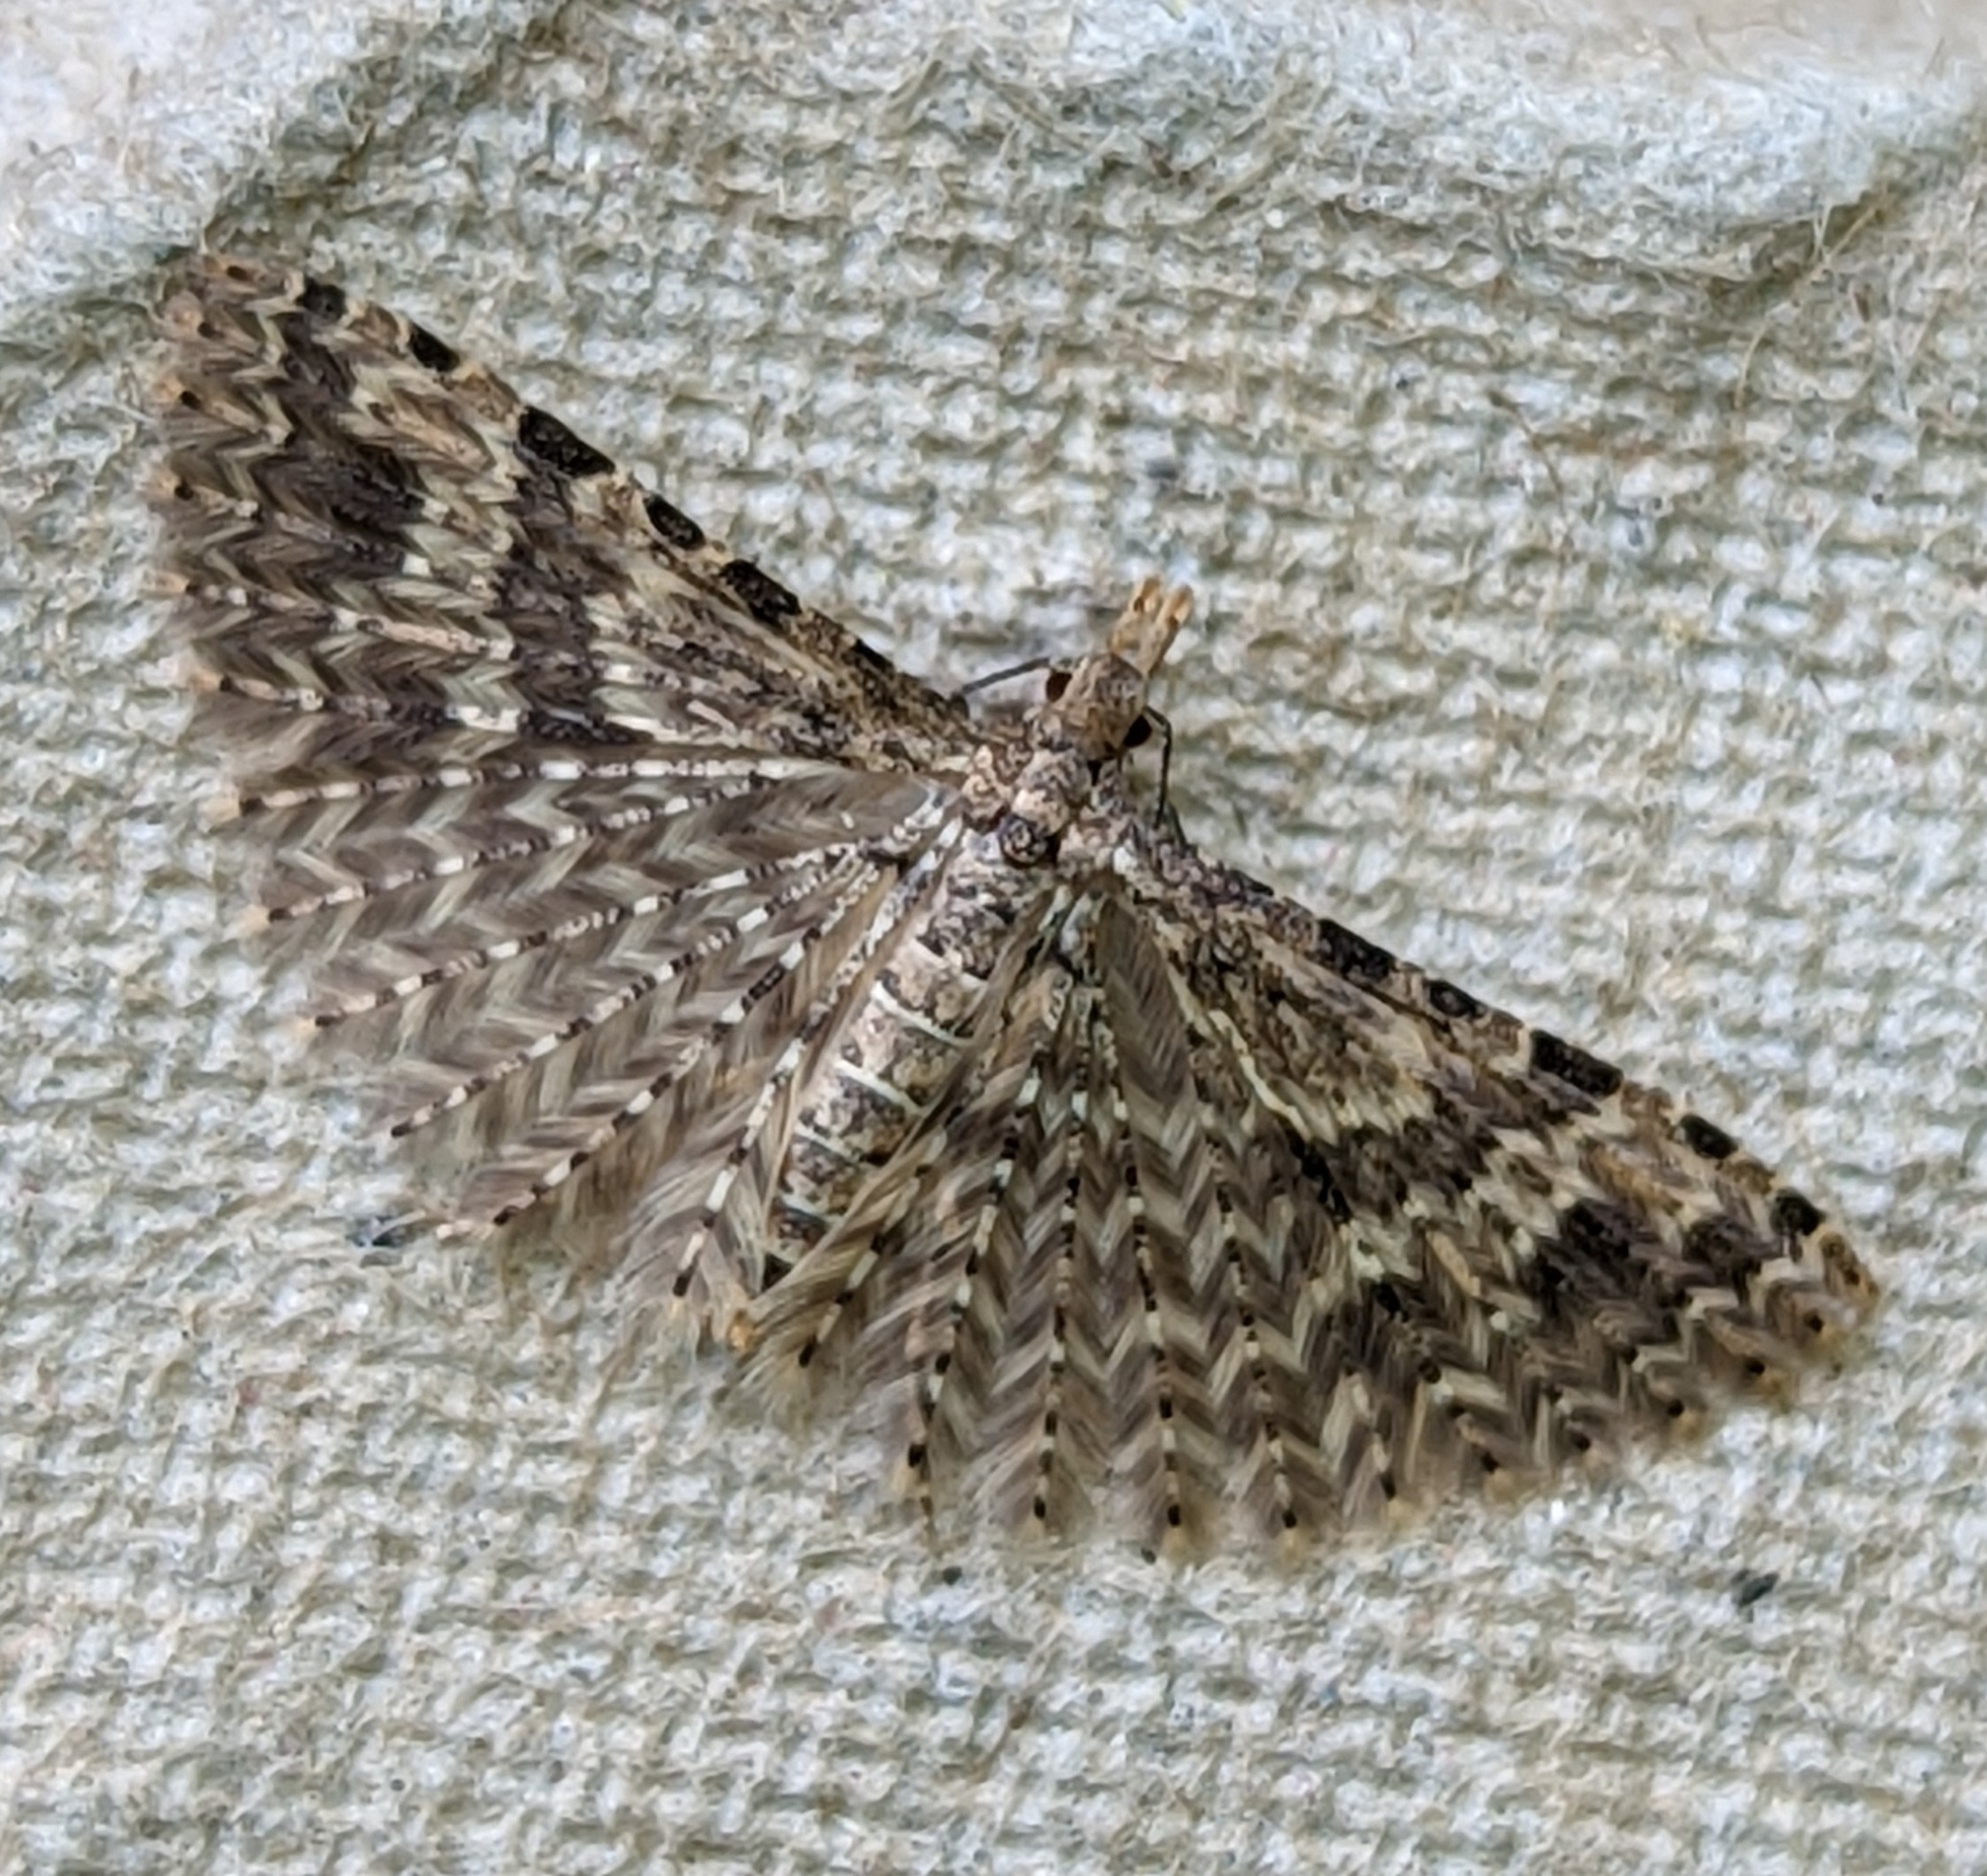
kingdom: Animalia
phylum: Arthropoda
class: Insecta
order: Lepidoptera
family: Alucitidae
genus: Alucita
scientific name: Alucita hexadactyla
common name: Twenty-plume moth
